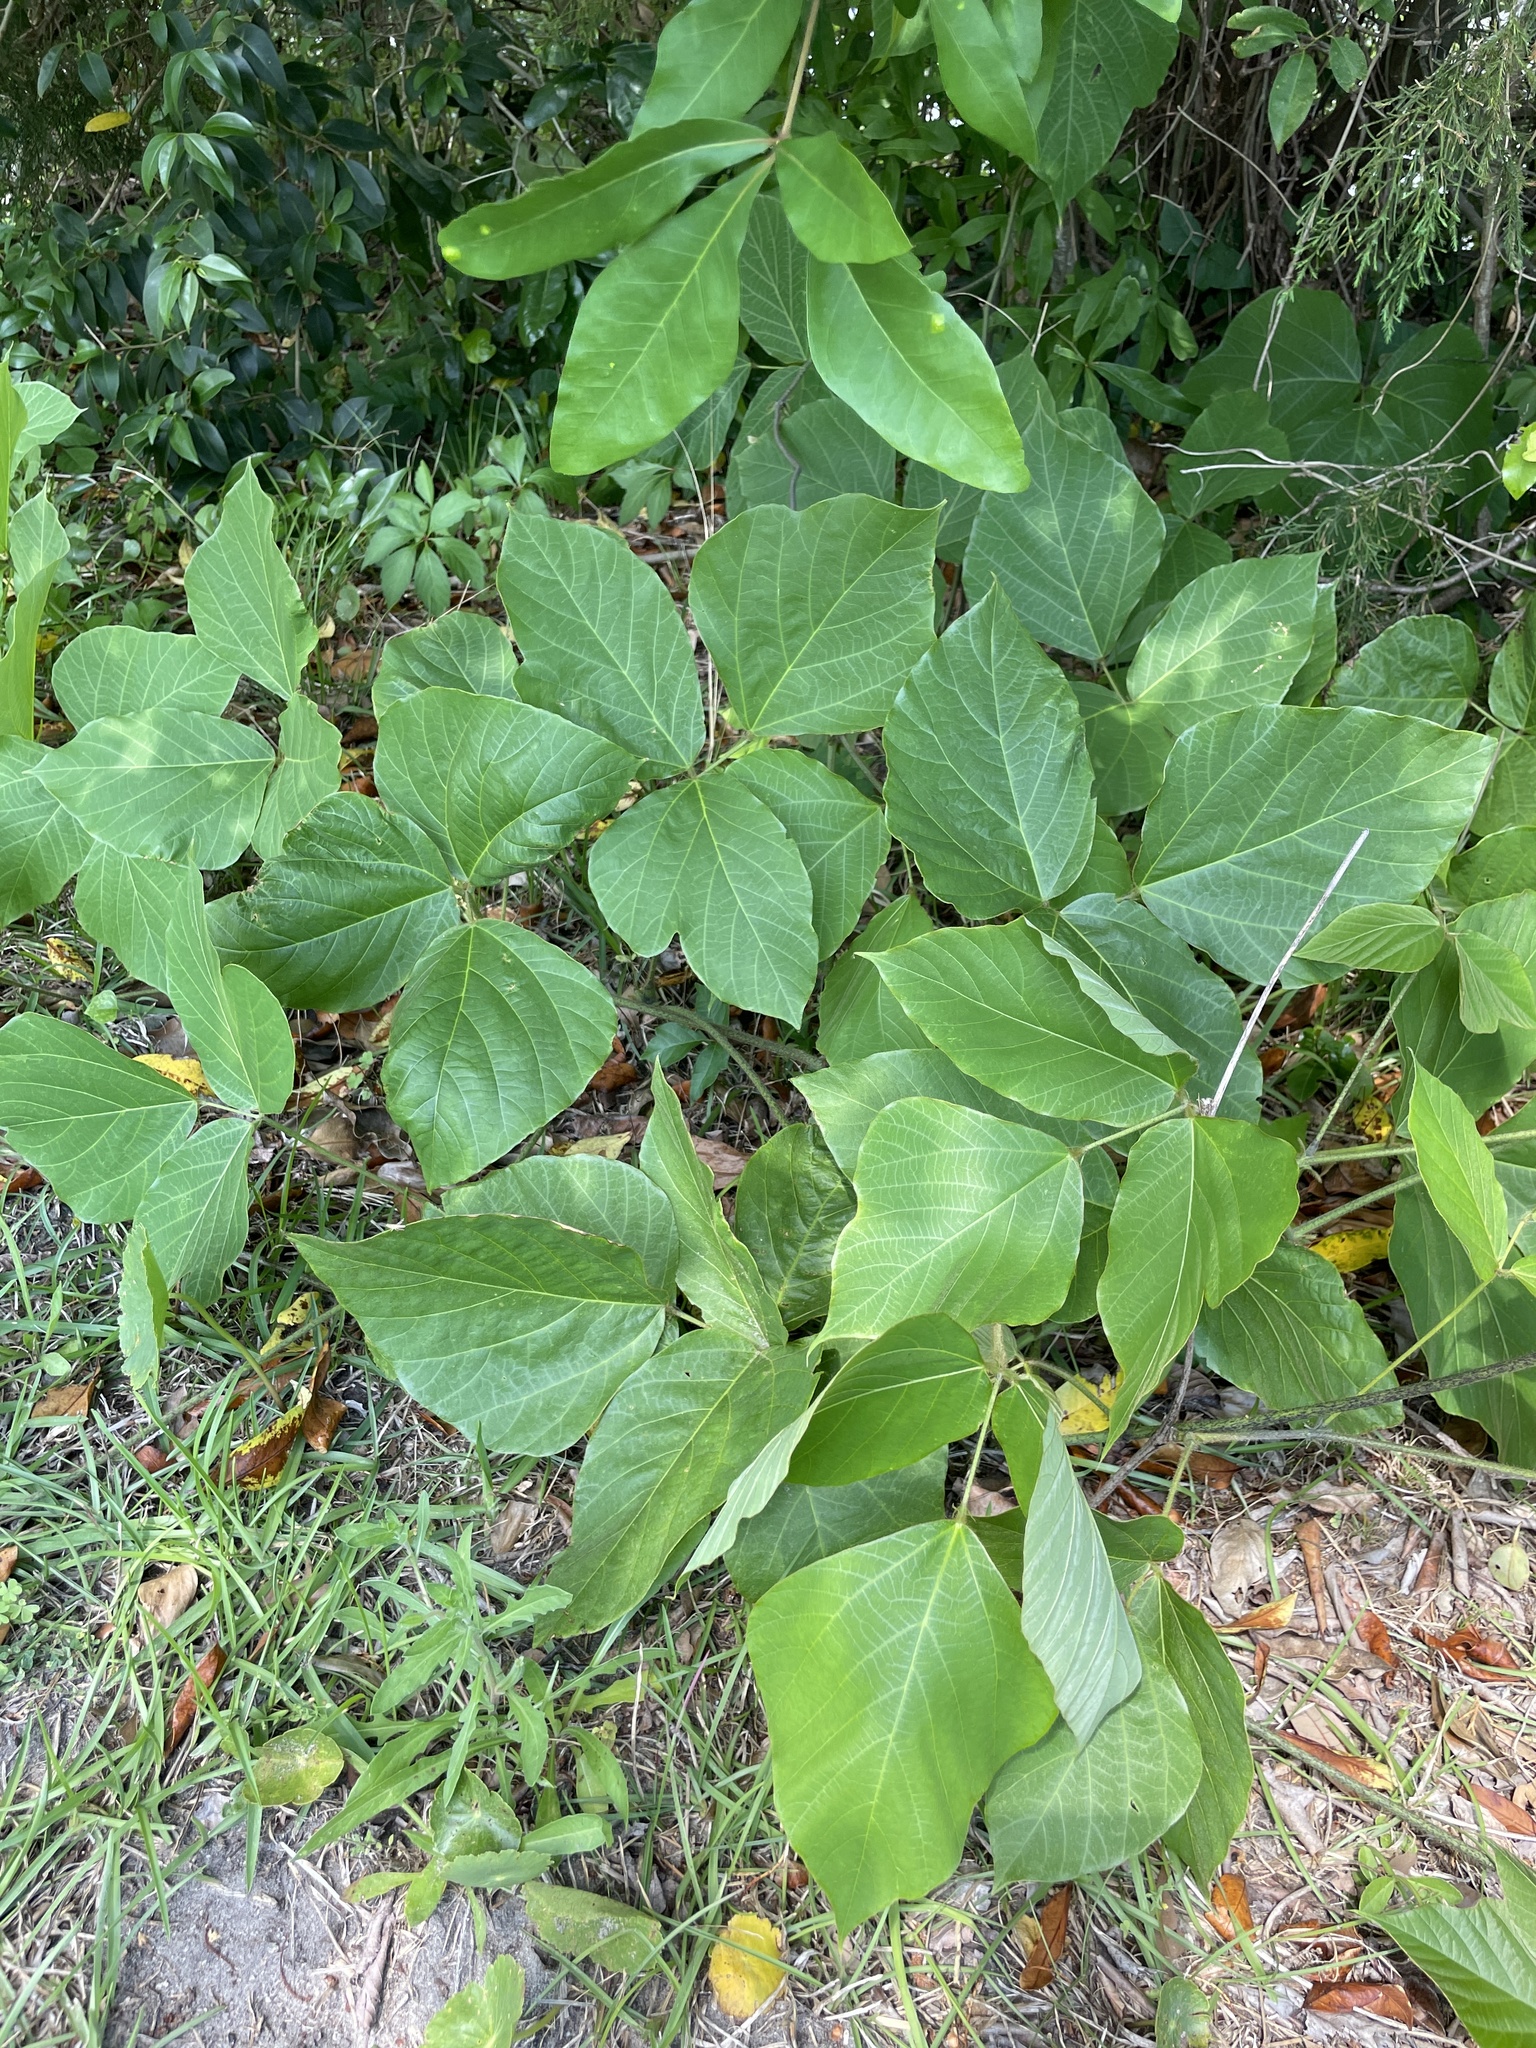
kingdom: Plantae
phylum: Tracheophyta
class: Magnoliopsida
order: Fabales
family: Fabaceae
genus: Pueraria
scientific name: Pueraria montana
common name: Kudzu
